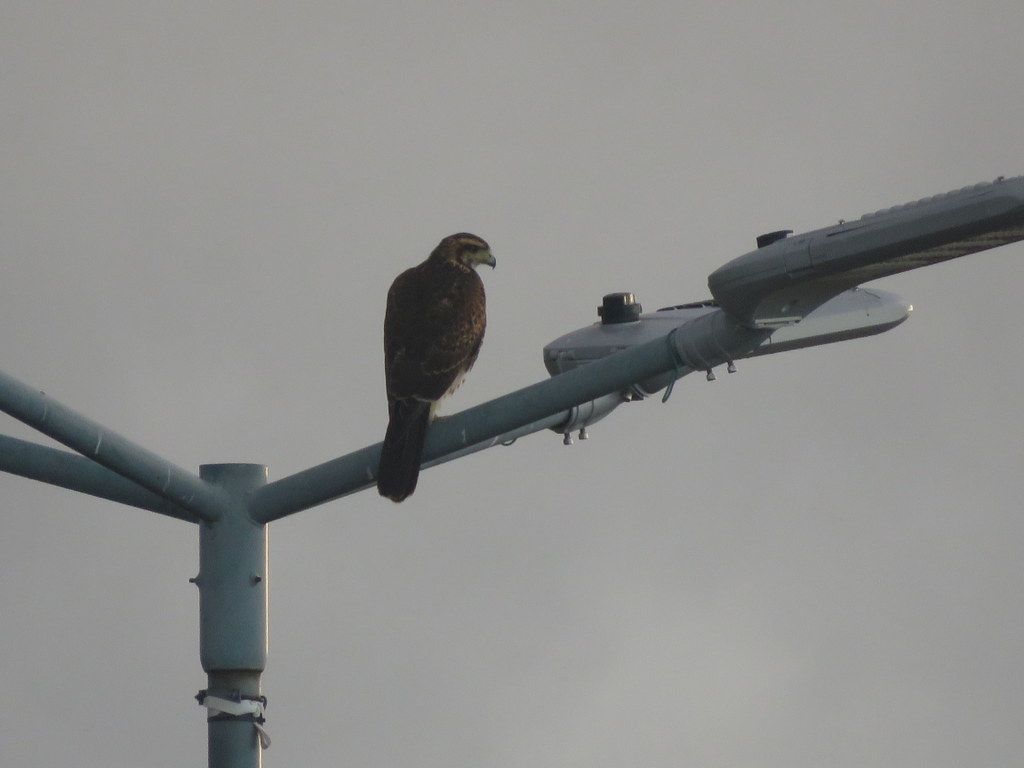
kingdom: Animalia
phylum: Chordata
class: Aves
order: Accipitriformes
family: Accipitridae
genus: Parabuteo
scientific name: Parabuteo unicinctus
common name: Harris's hawk
